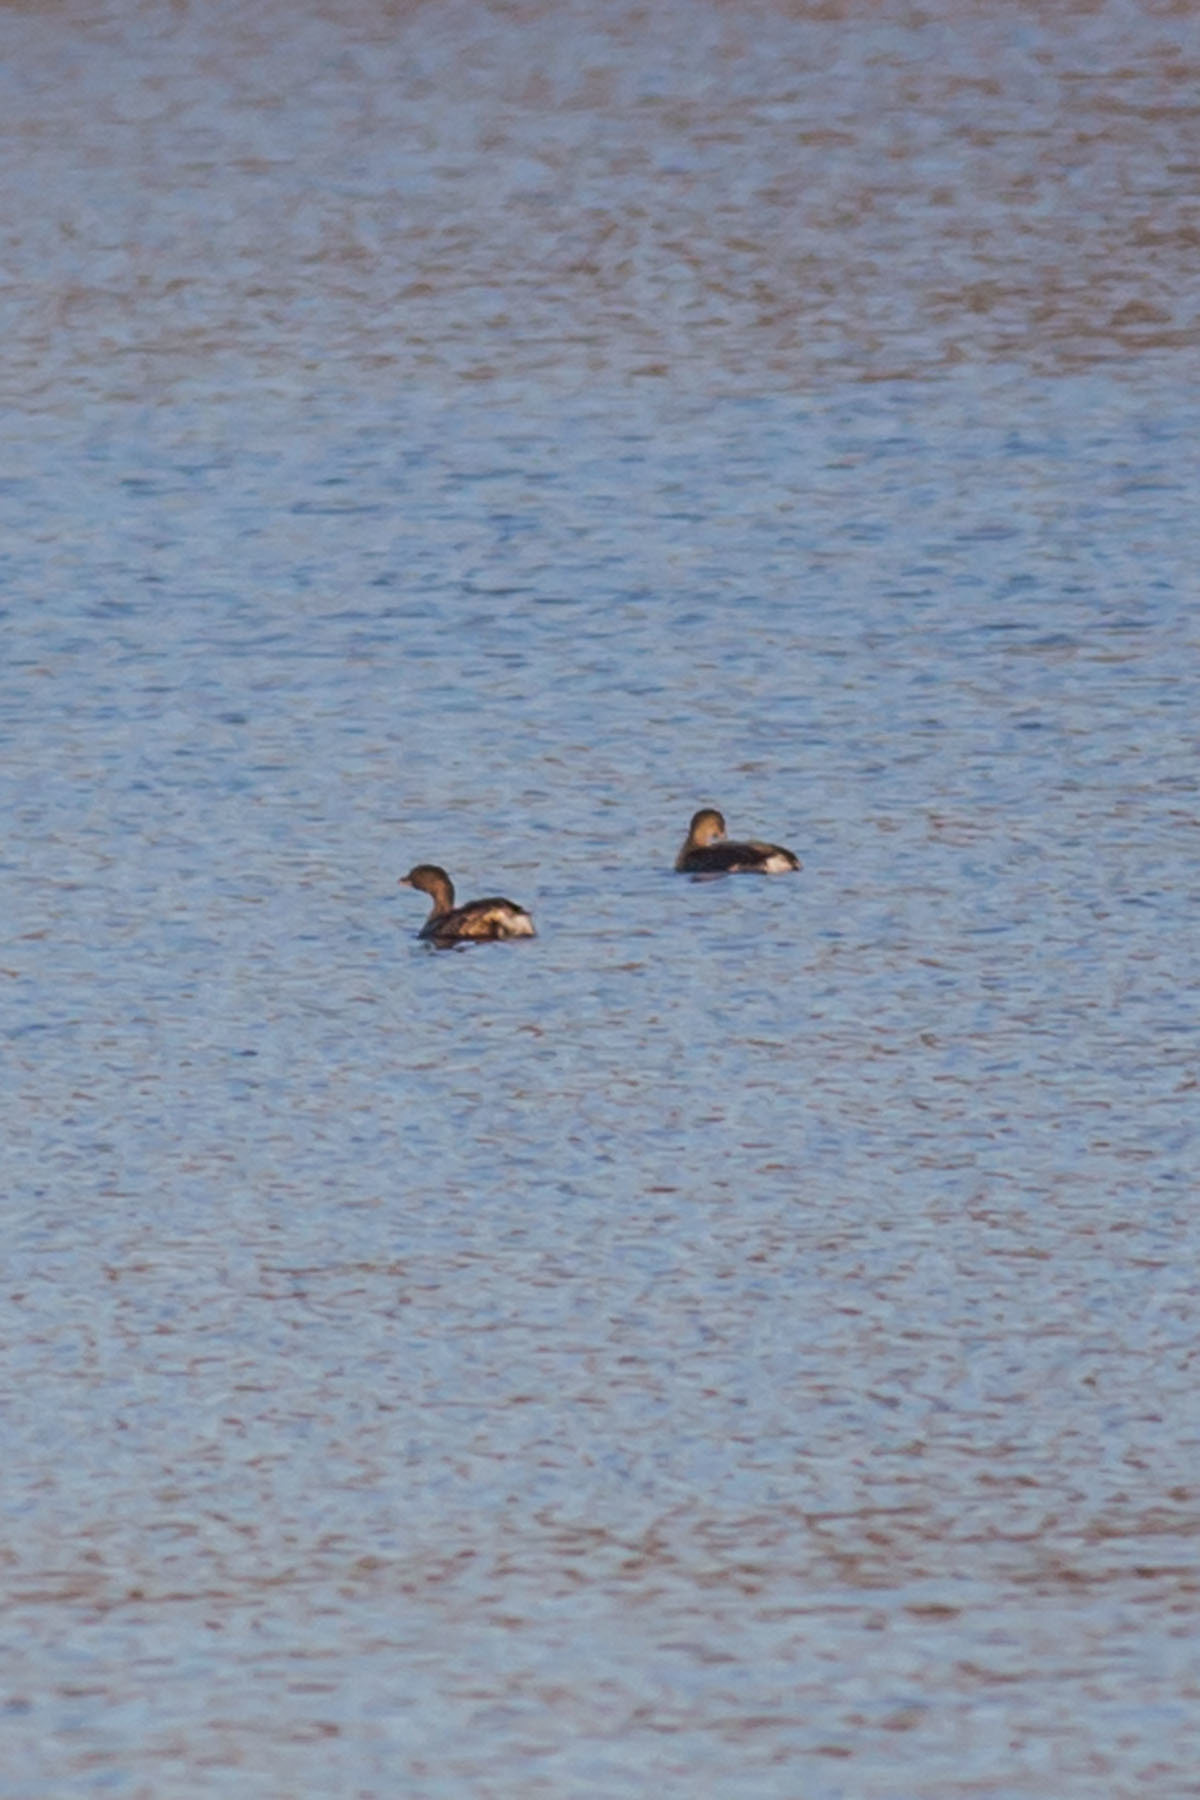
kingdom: Animalia
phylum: Chordata
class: Aves
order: Podicipediformes
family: Podicipedidae
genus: Podilymbus
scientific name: Podilymbus podiceps
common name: Pied-billed grebe
